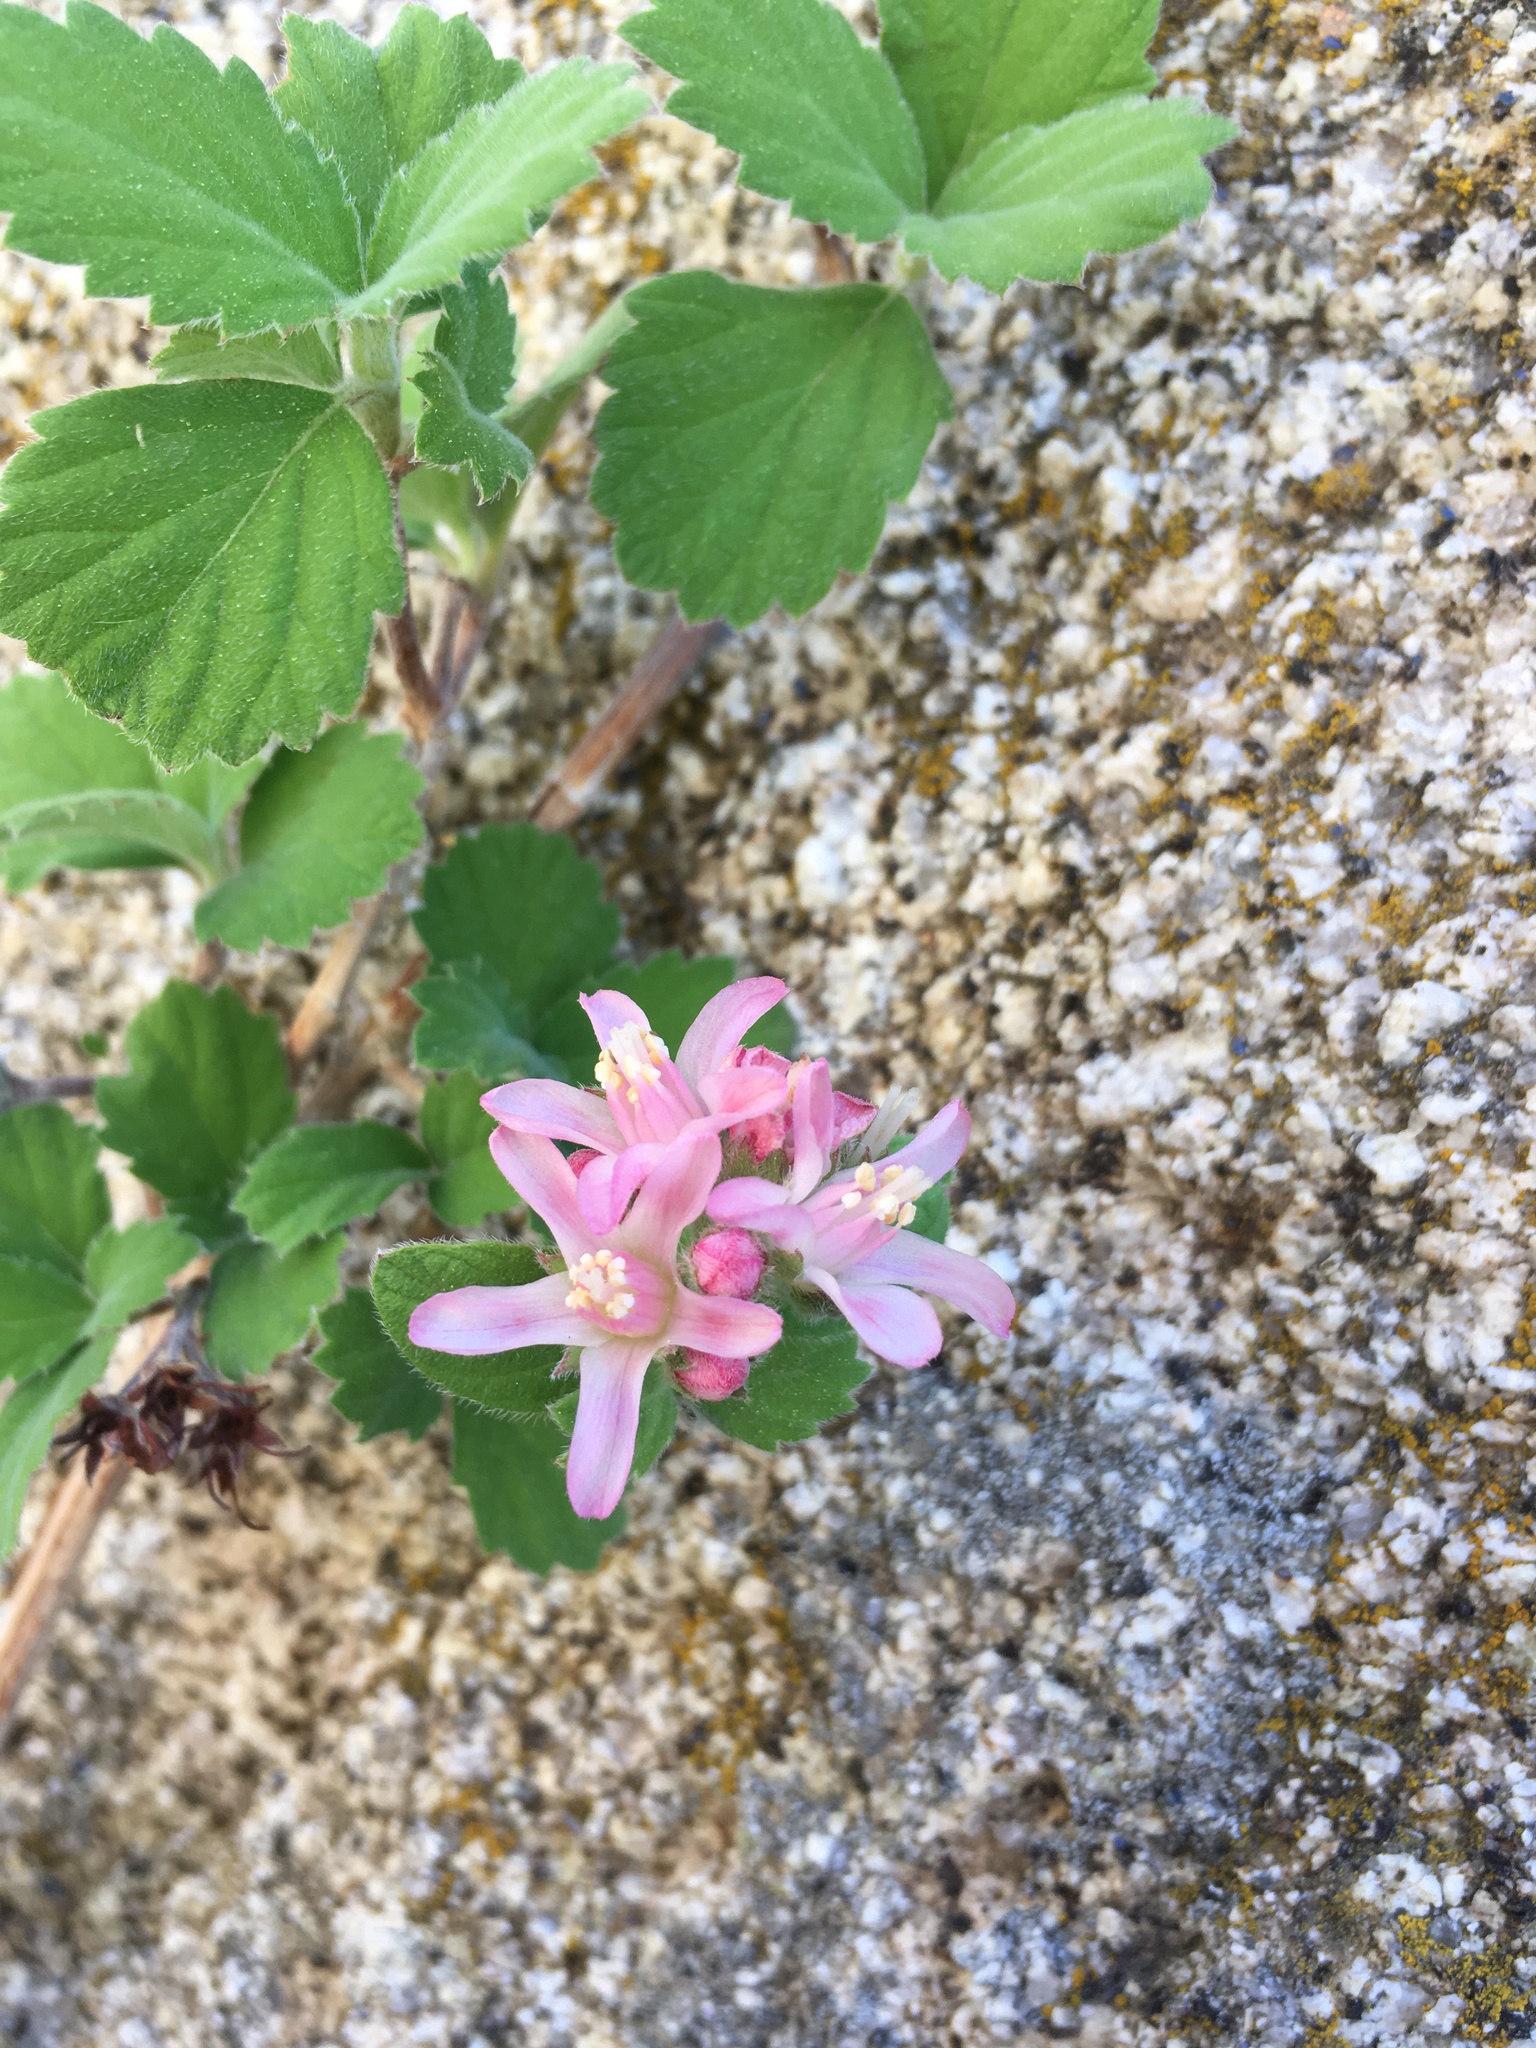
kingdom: Plantae
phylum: Tracheophyta
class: Magnoliopsida
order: Cornales
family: Hydrangeaceae
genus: Jamesia
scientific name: Jamesia americana
